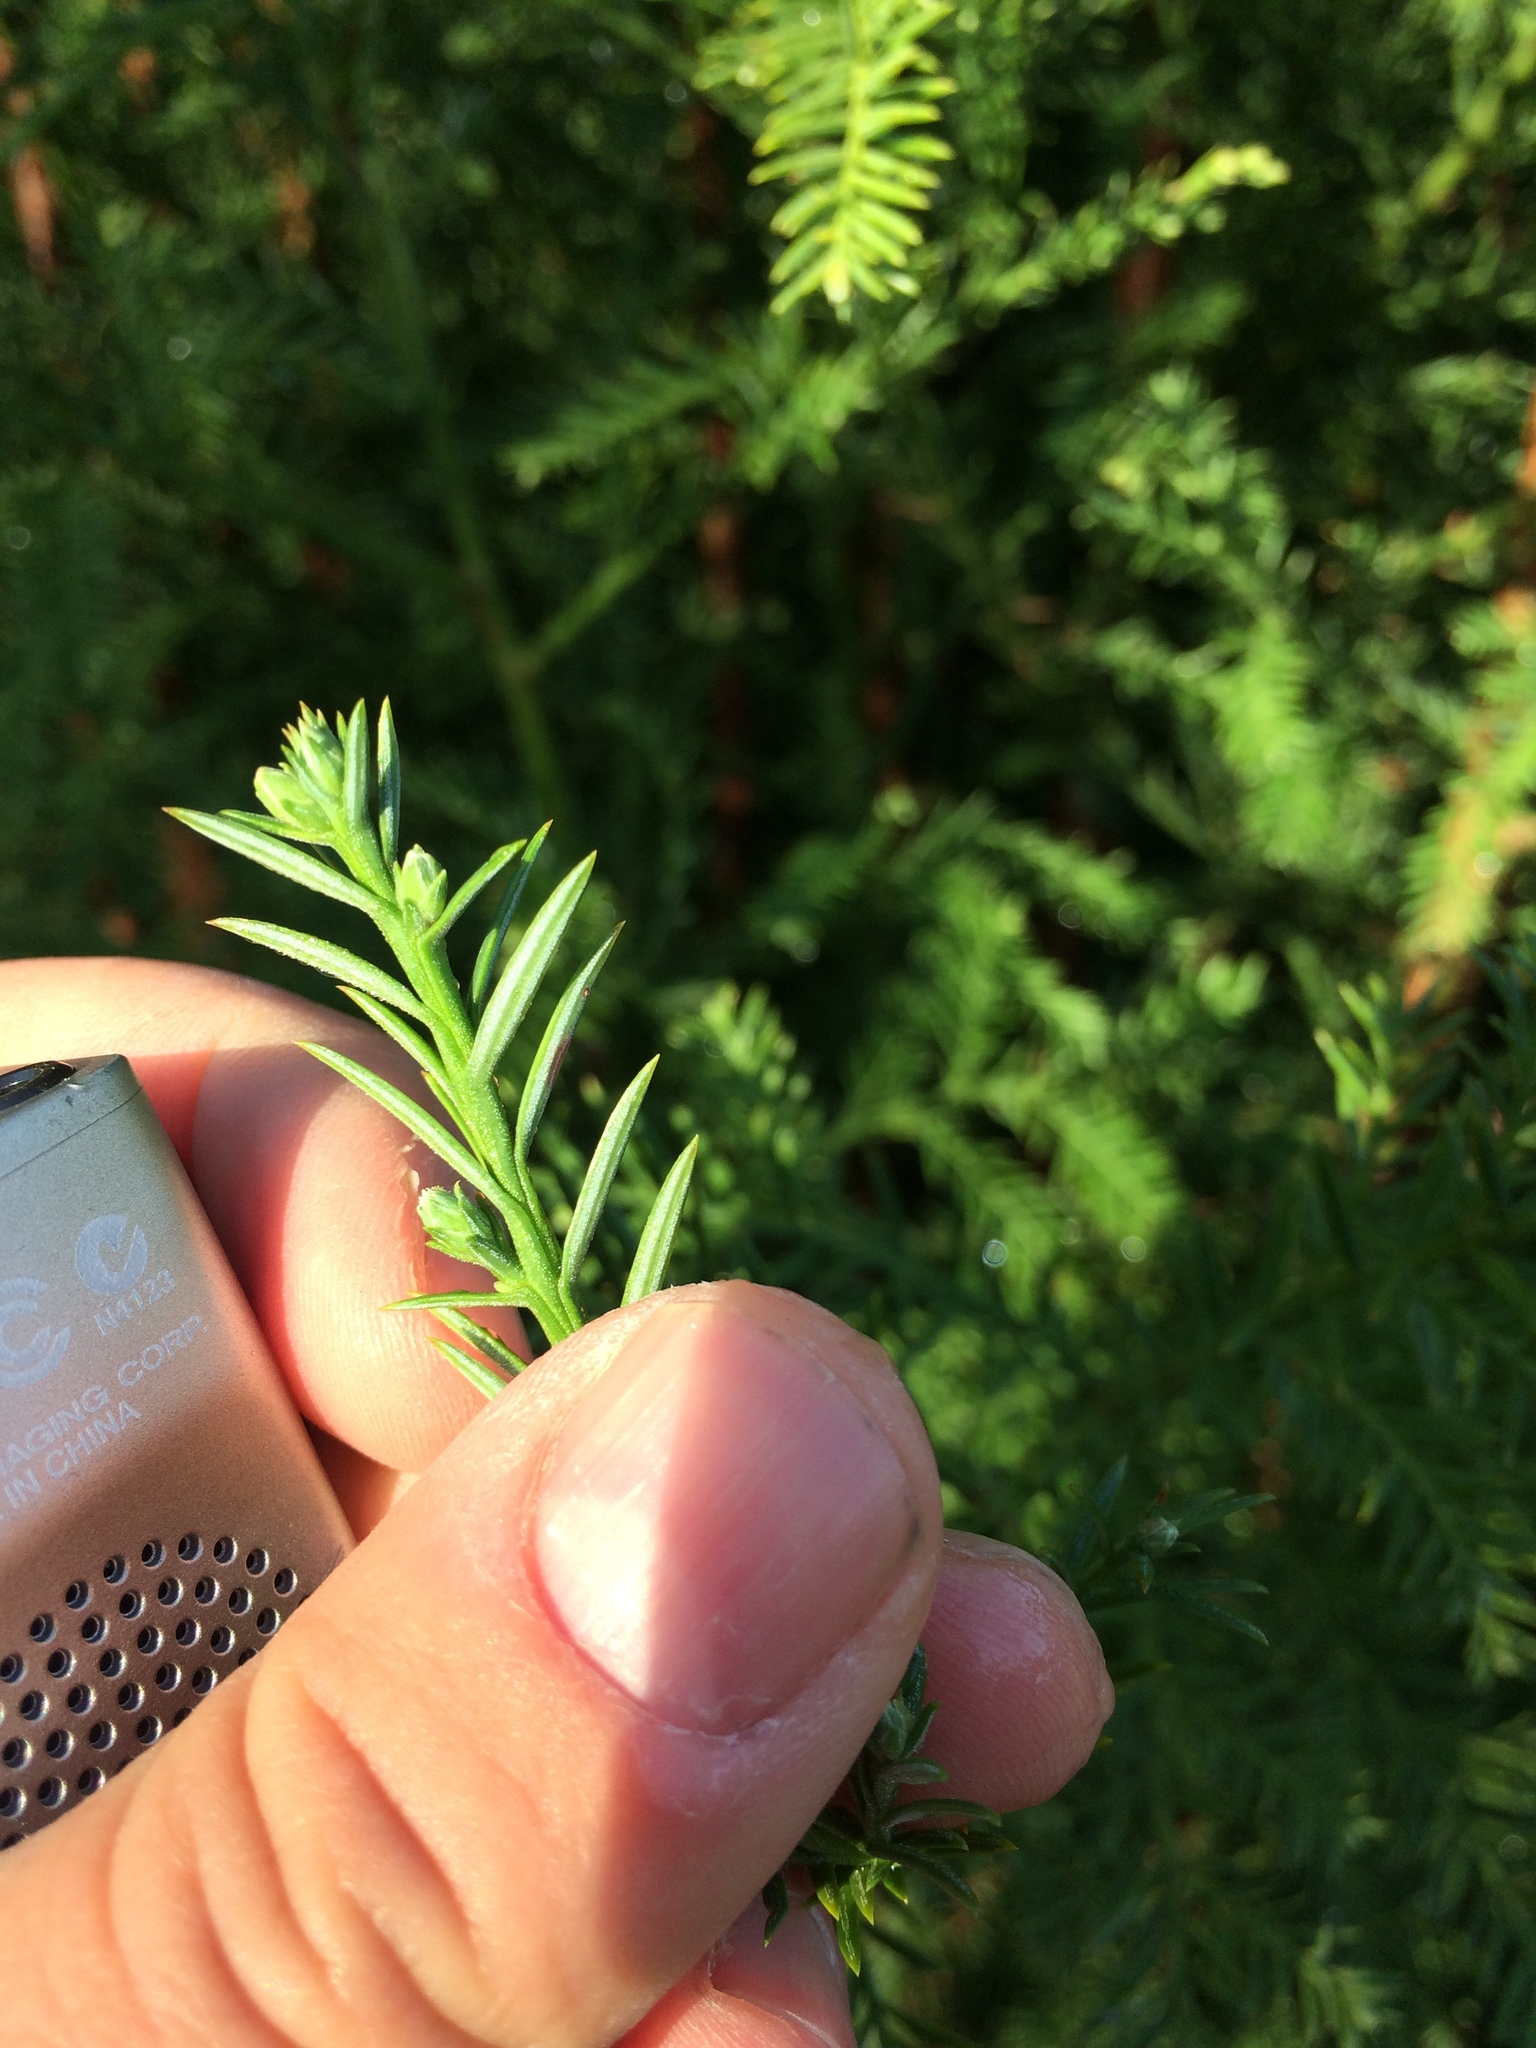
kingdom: Plantae
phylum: Tracheophyta
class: Pinopsida
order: Pinales
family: Cupressaceae
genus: Sequoia
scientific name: Sequoia sempervirens
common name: Coast redwood
